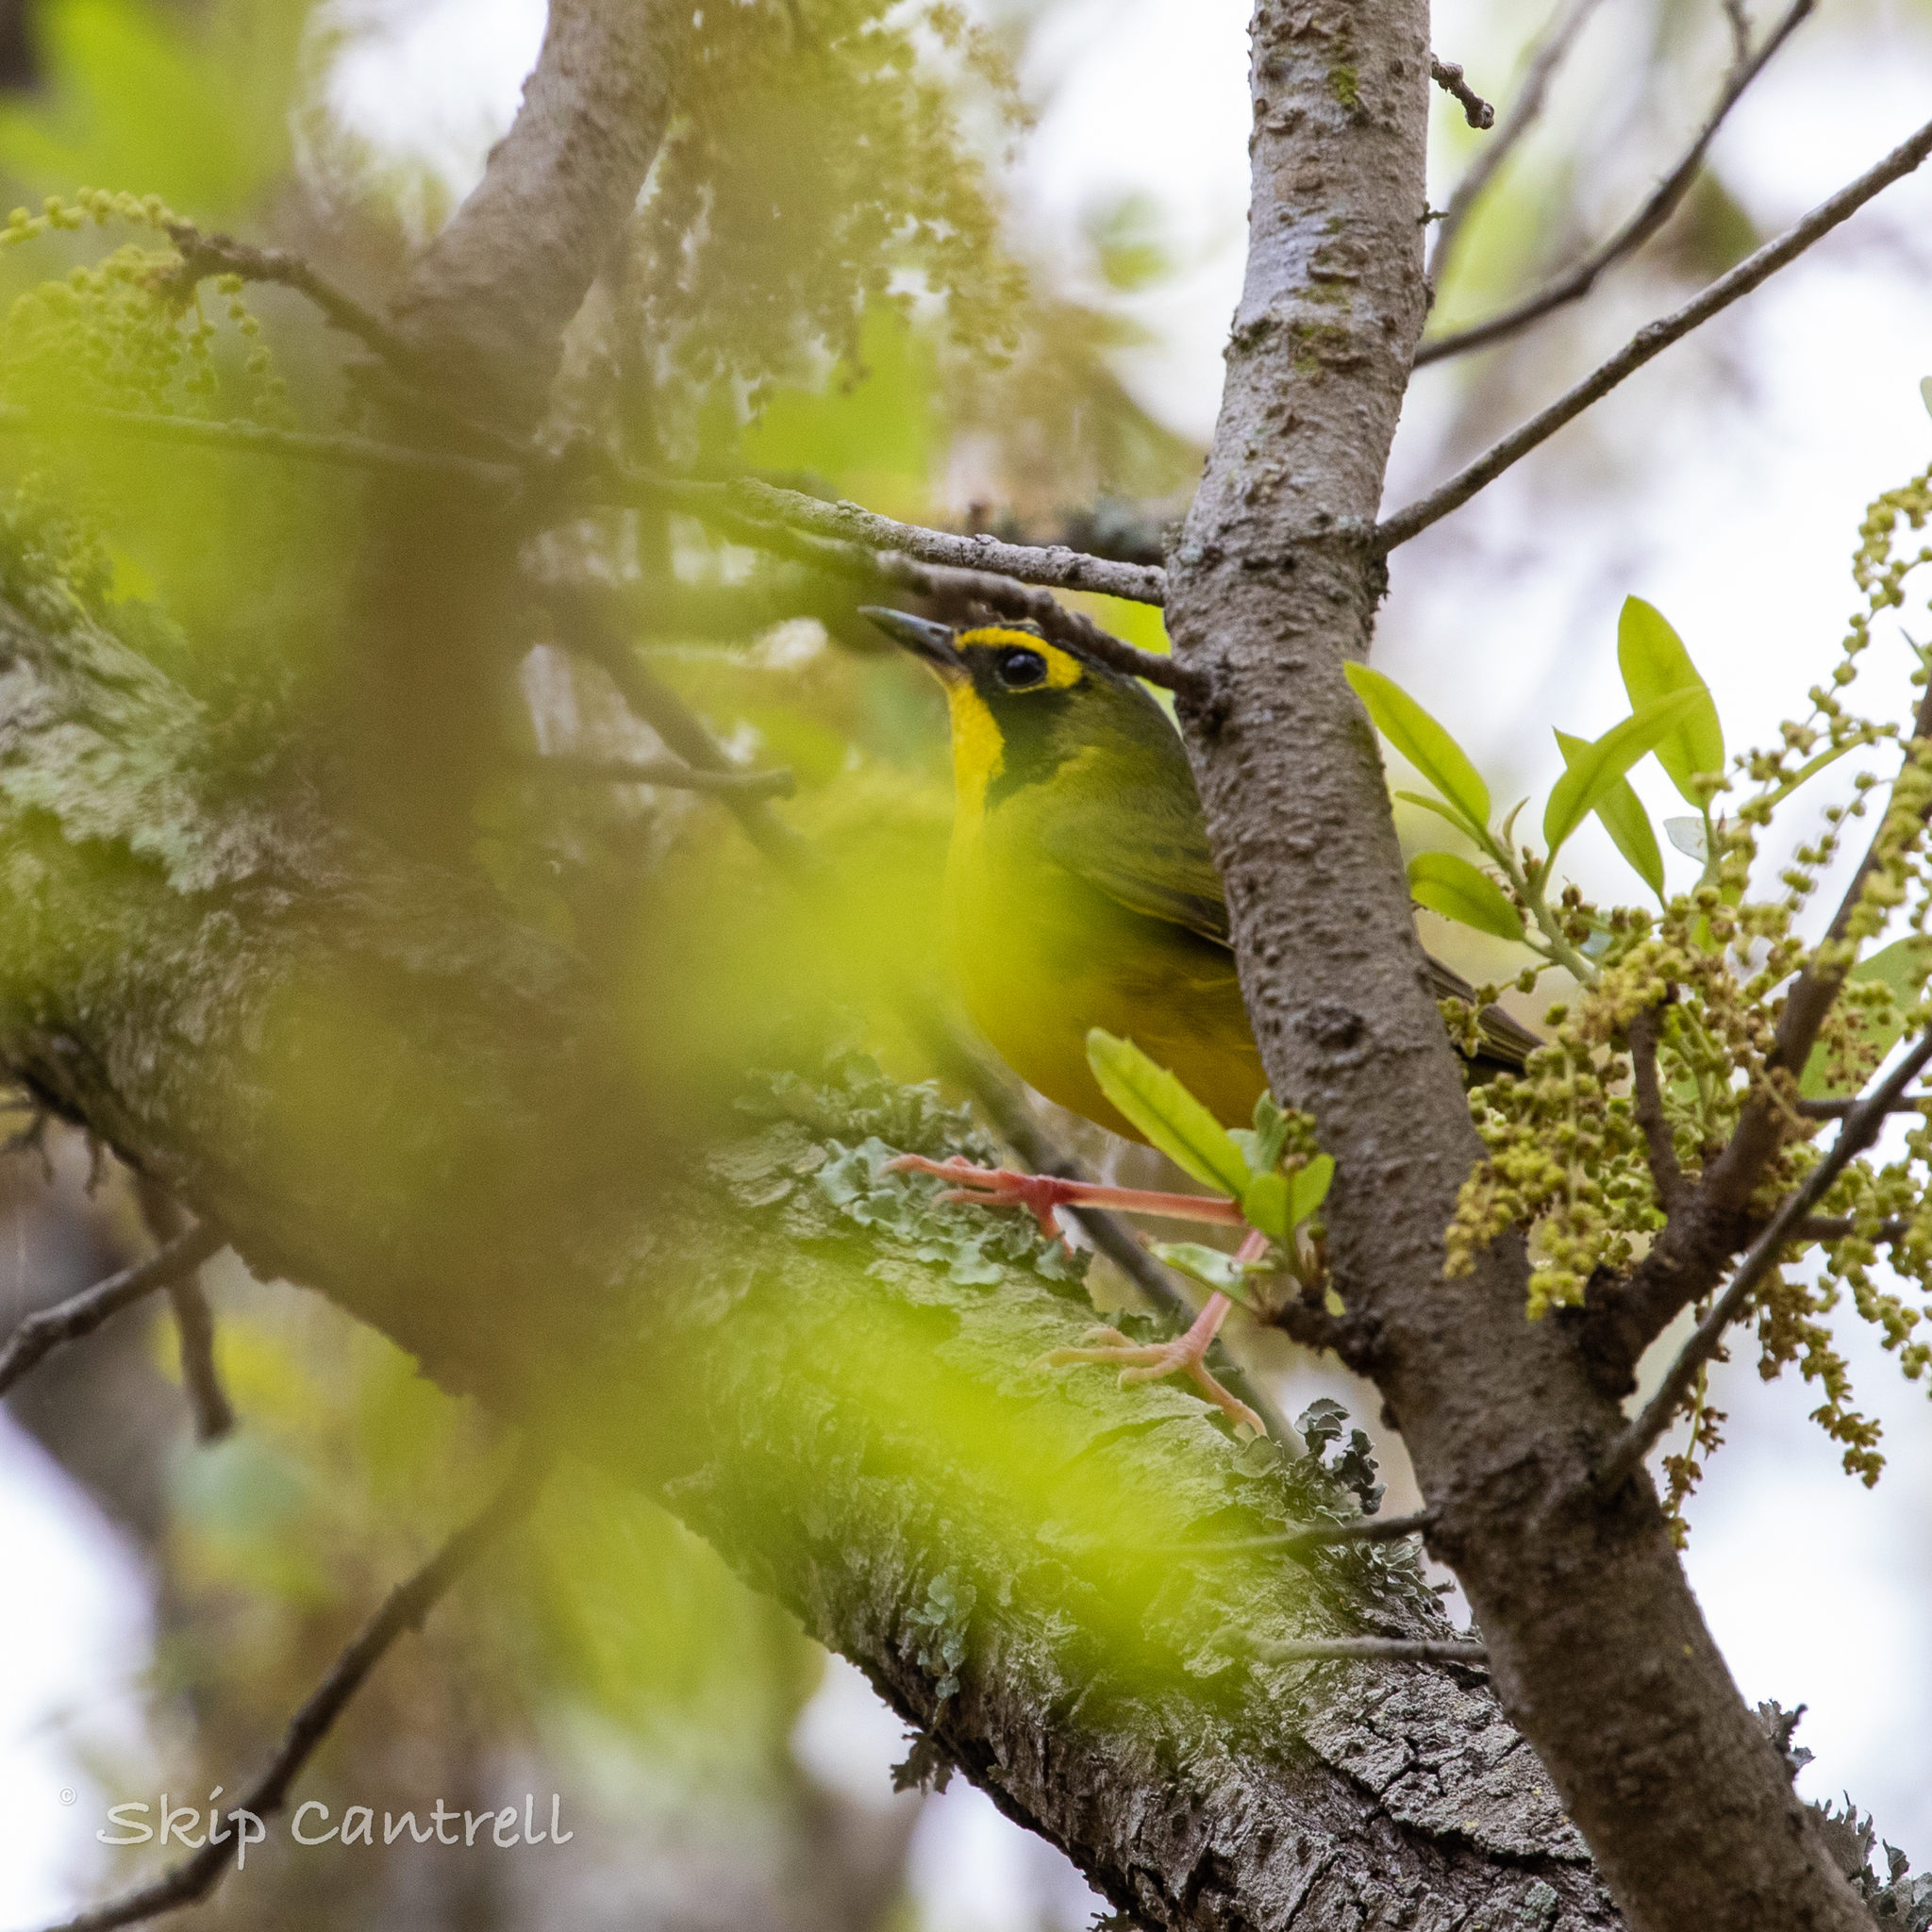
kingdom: Animalia
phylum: Chordata
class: Aves
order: Passeriformes
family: Parulidae
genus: Geothlypis
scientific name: Geothlypis formosa
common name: Kentucky warbler
